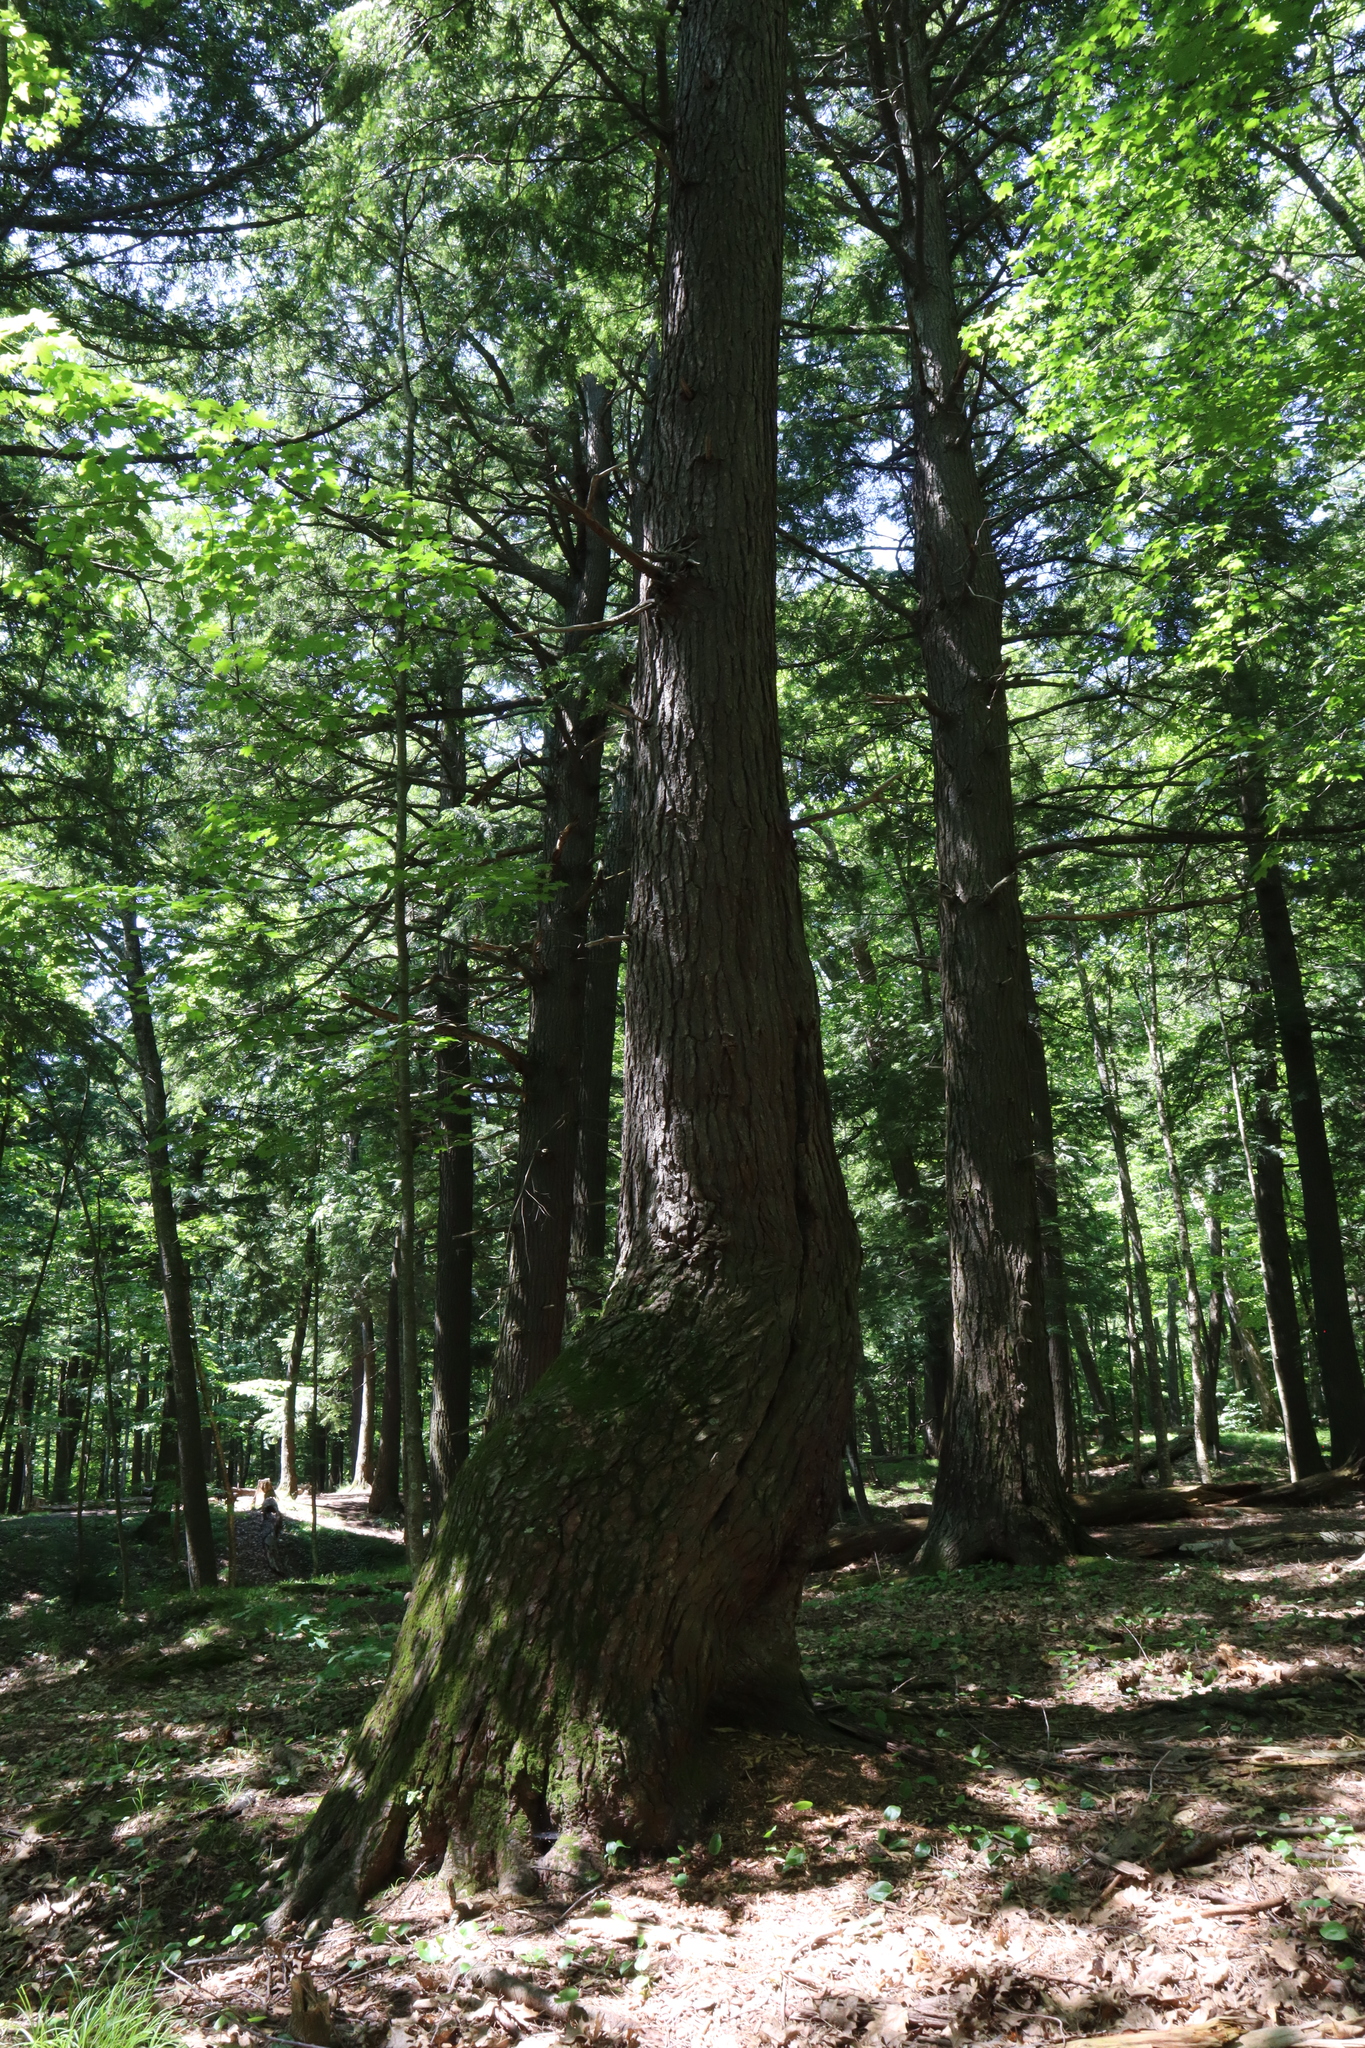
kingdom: Plantae
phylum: Tracheophyta
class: Pinopsida
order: Pinales
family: Pinaceae
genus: Tsuga
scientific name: Tsuga canadensis
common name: Eastern hemlock
